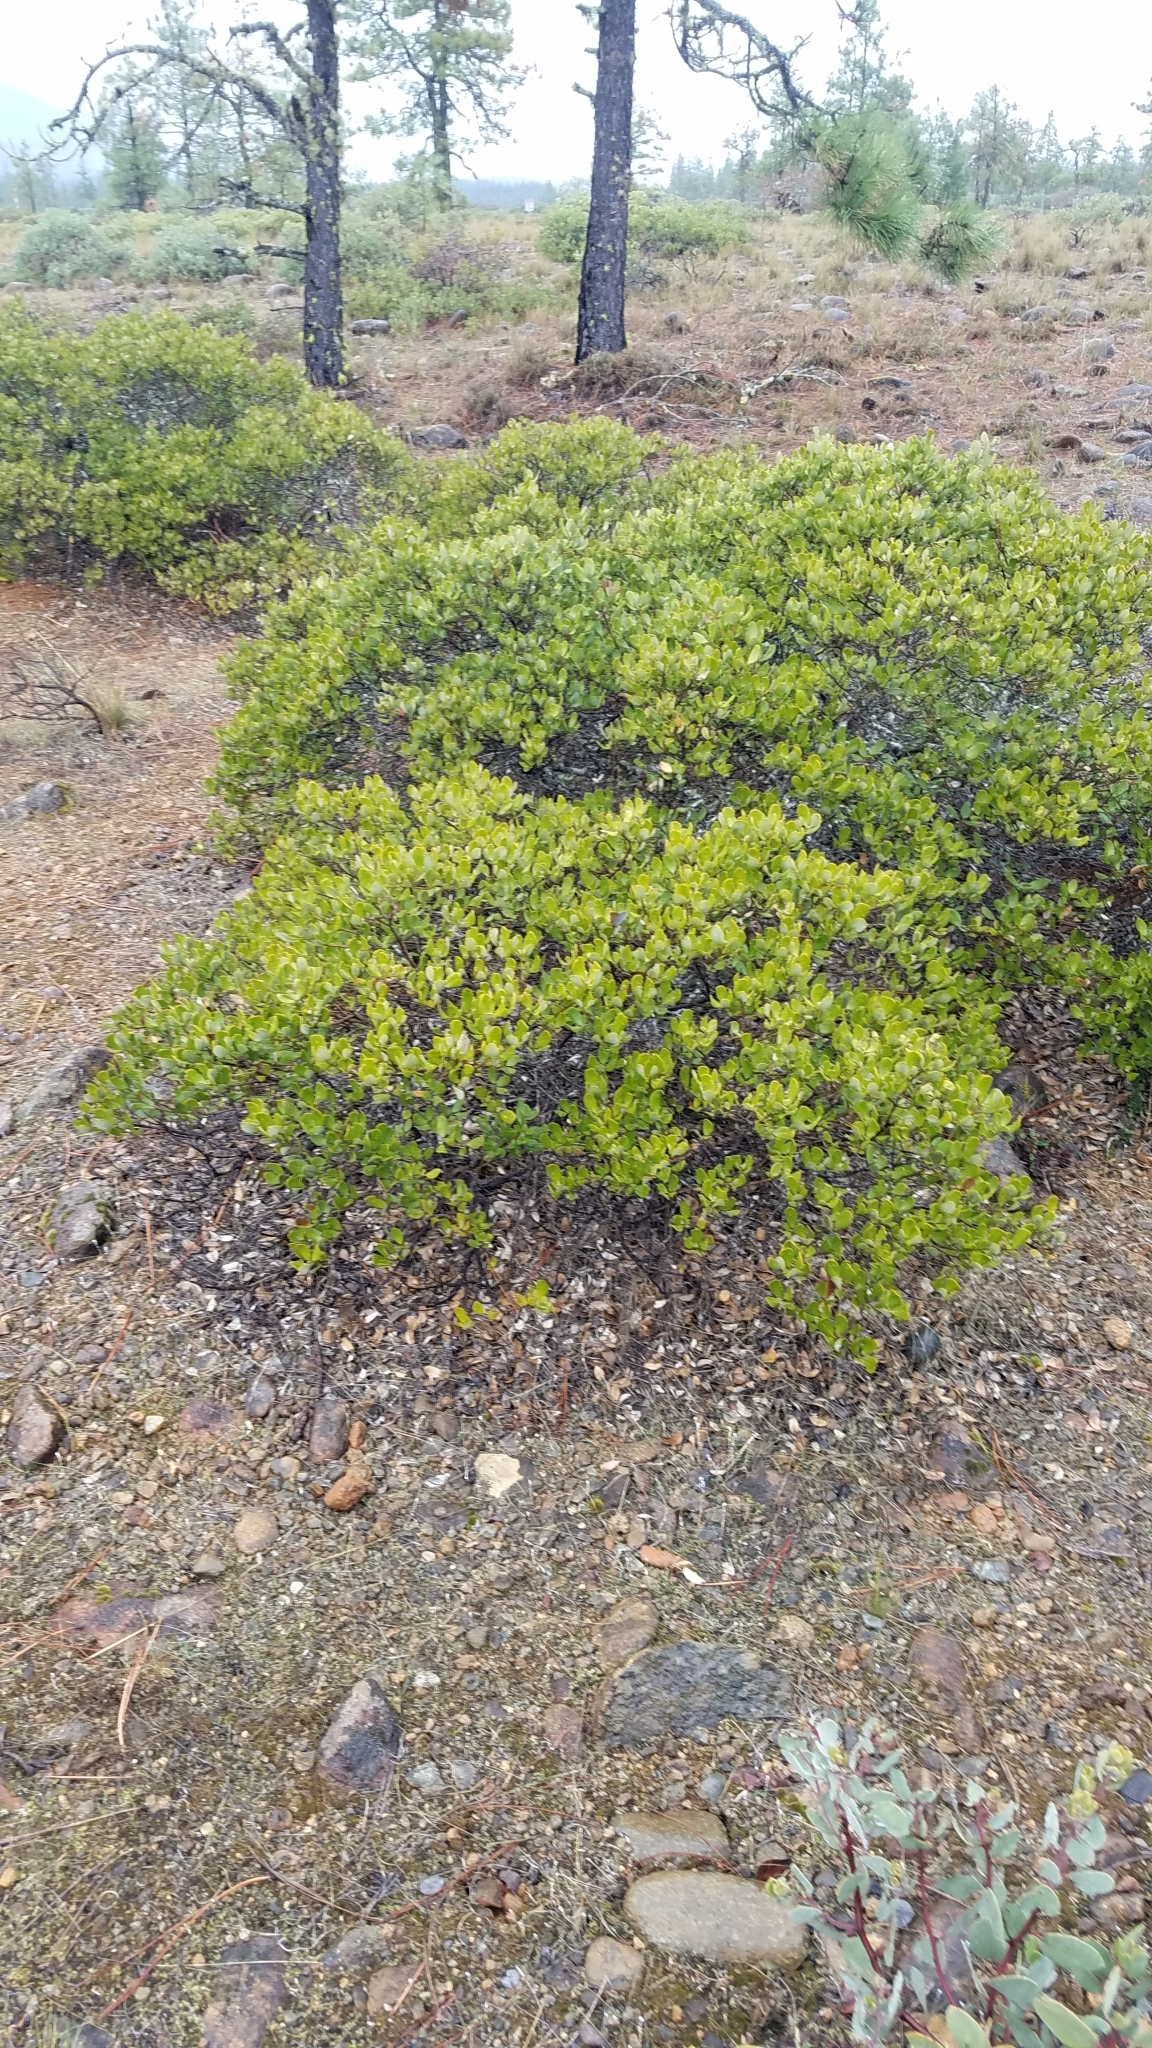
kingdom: Plantae
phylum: Tracheophyta
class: Magnoliopsida
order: Garryales
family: Garryaceae
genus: Garrya
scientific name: Garrya buxifolia
